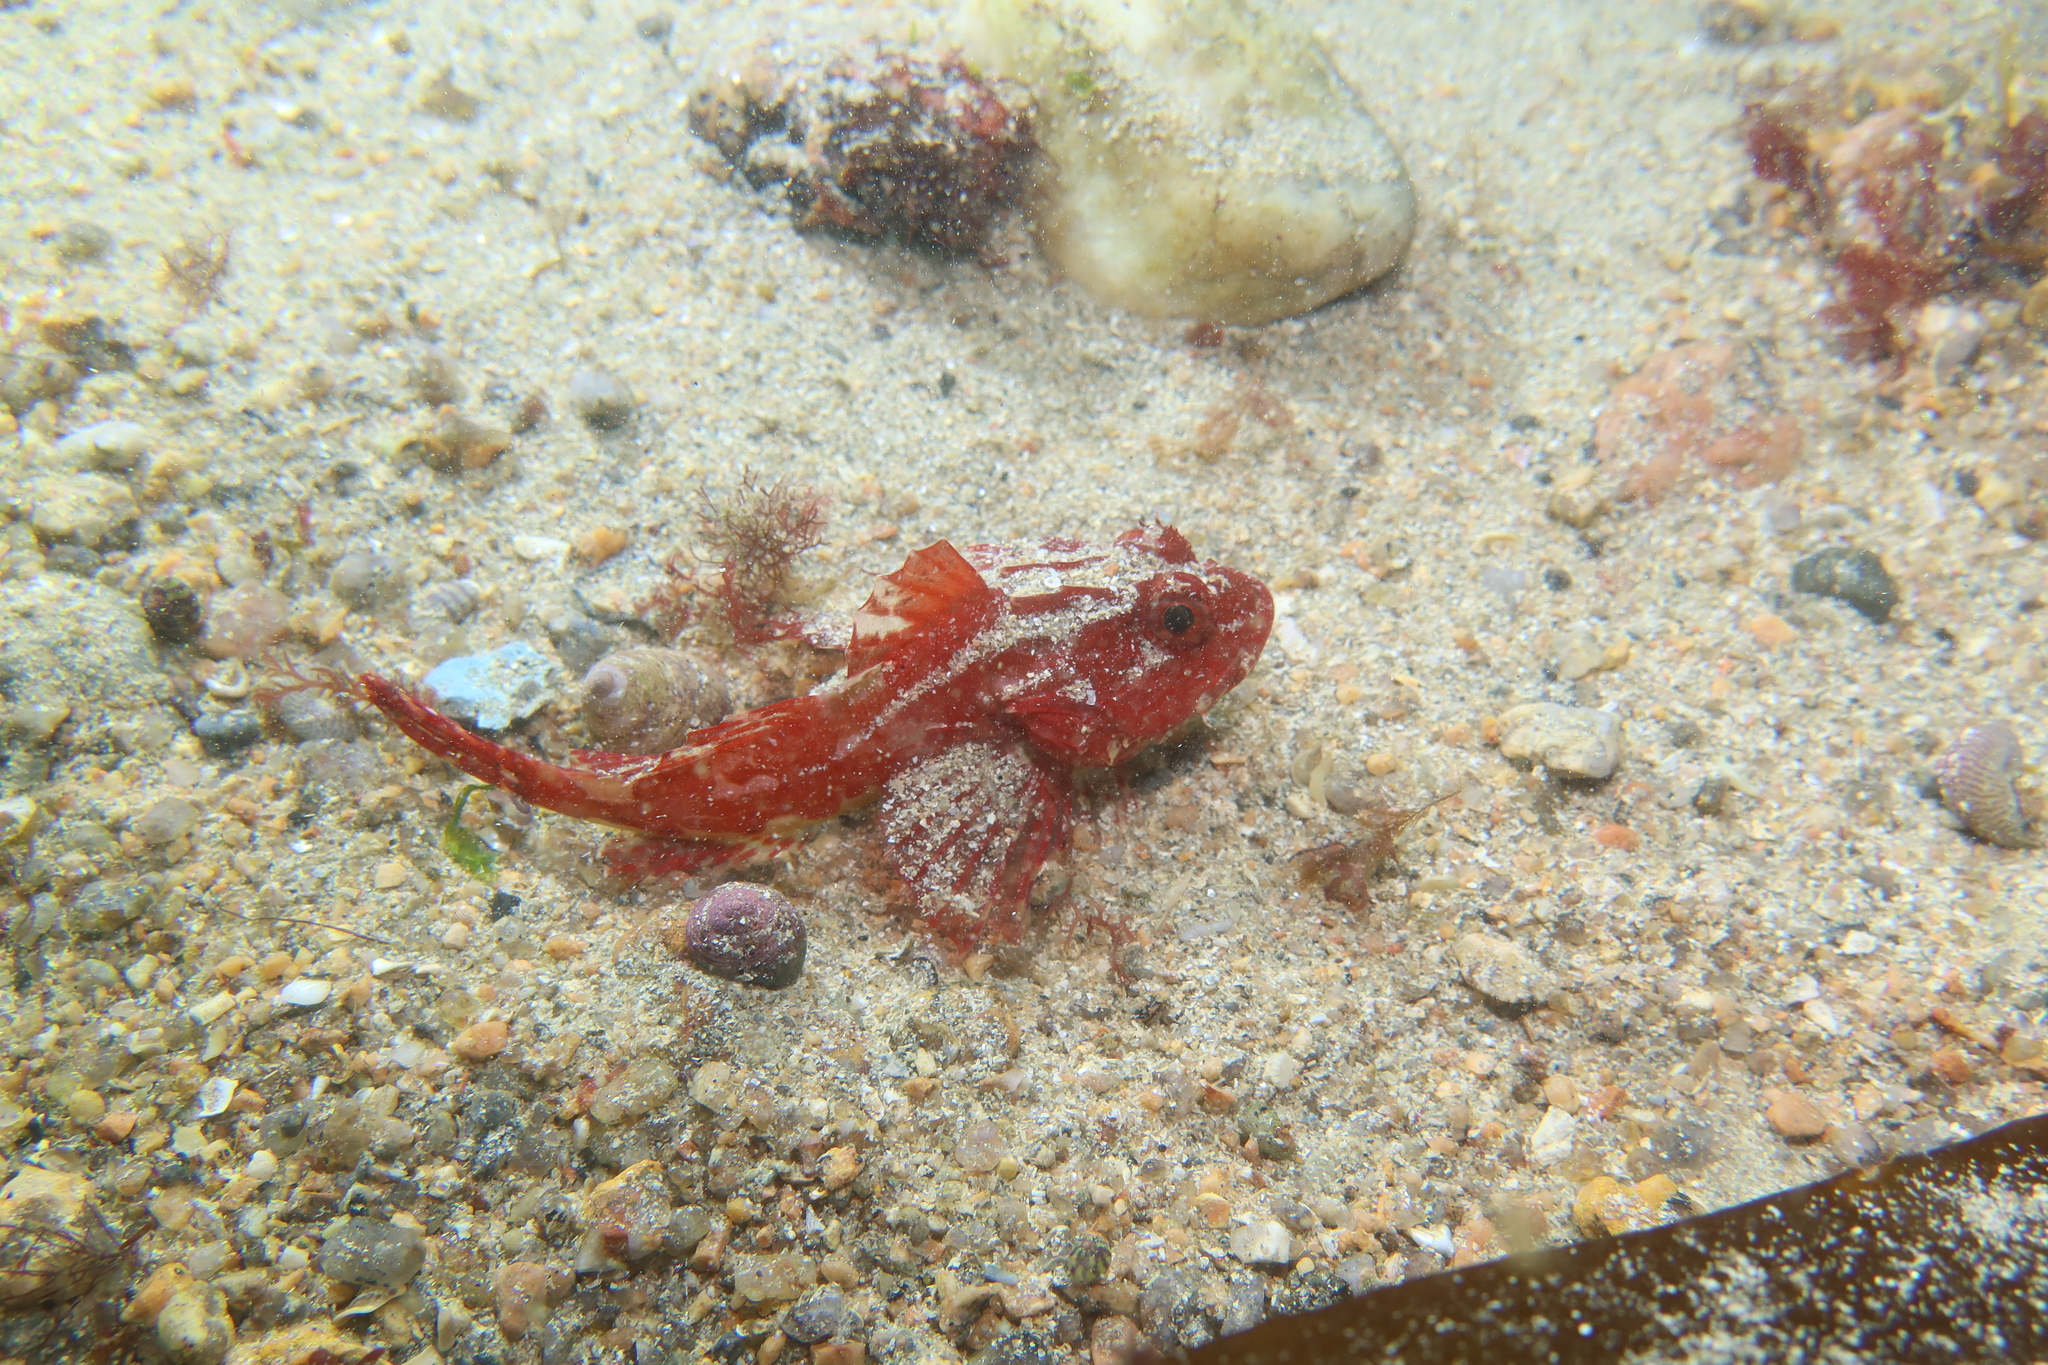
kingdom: Animalia
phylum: Chordata
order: Scorpaeniformes
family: Cottidae
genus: Taurulus
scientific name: Taurulus bubalis
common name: Sea scorpion
